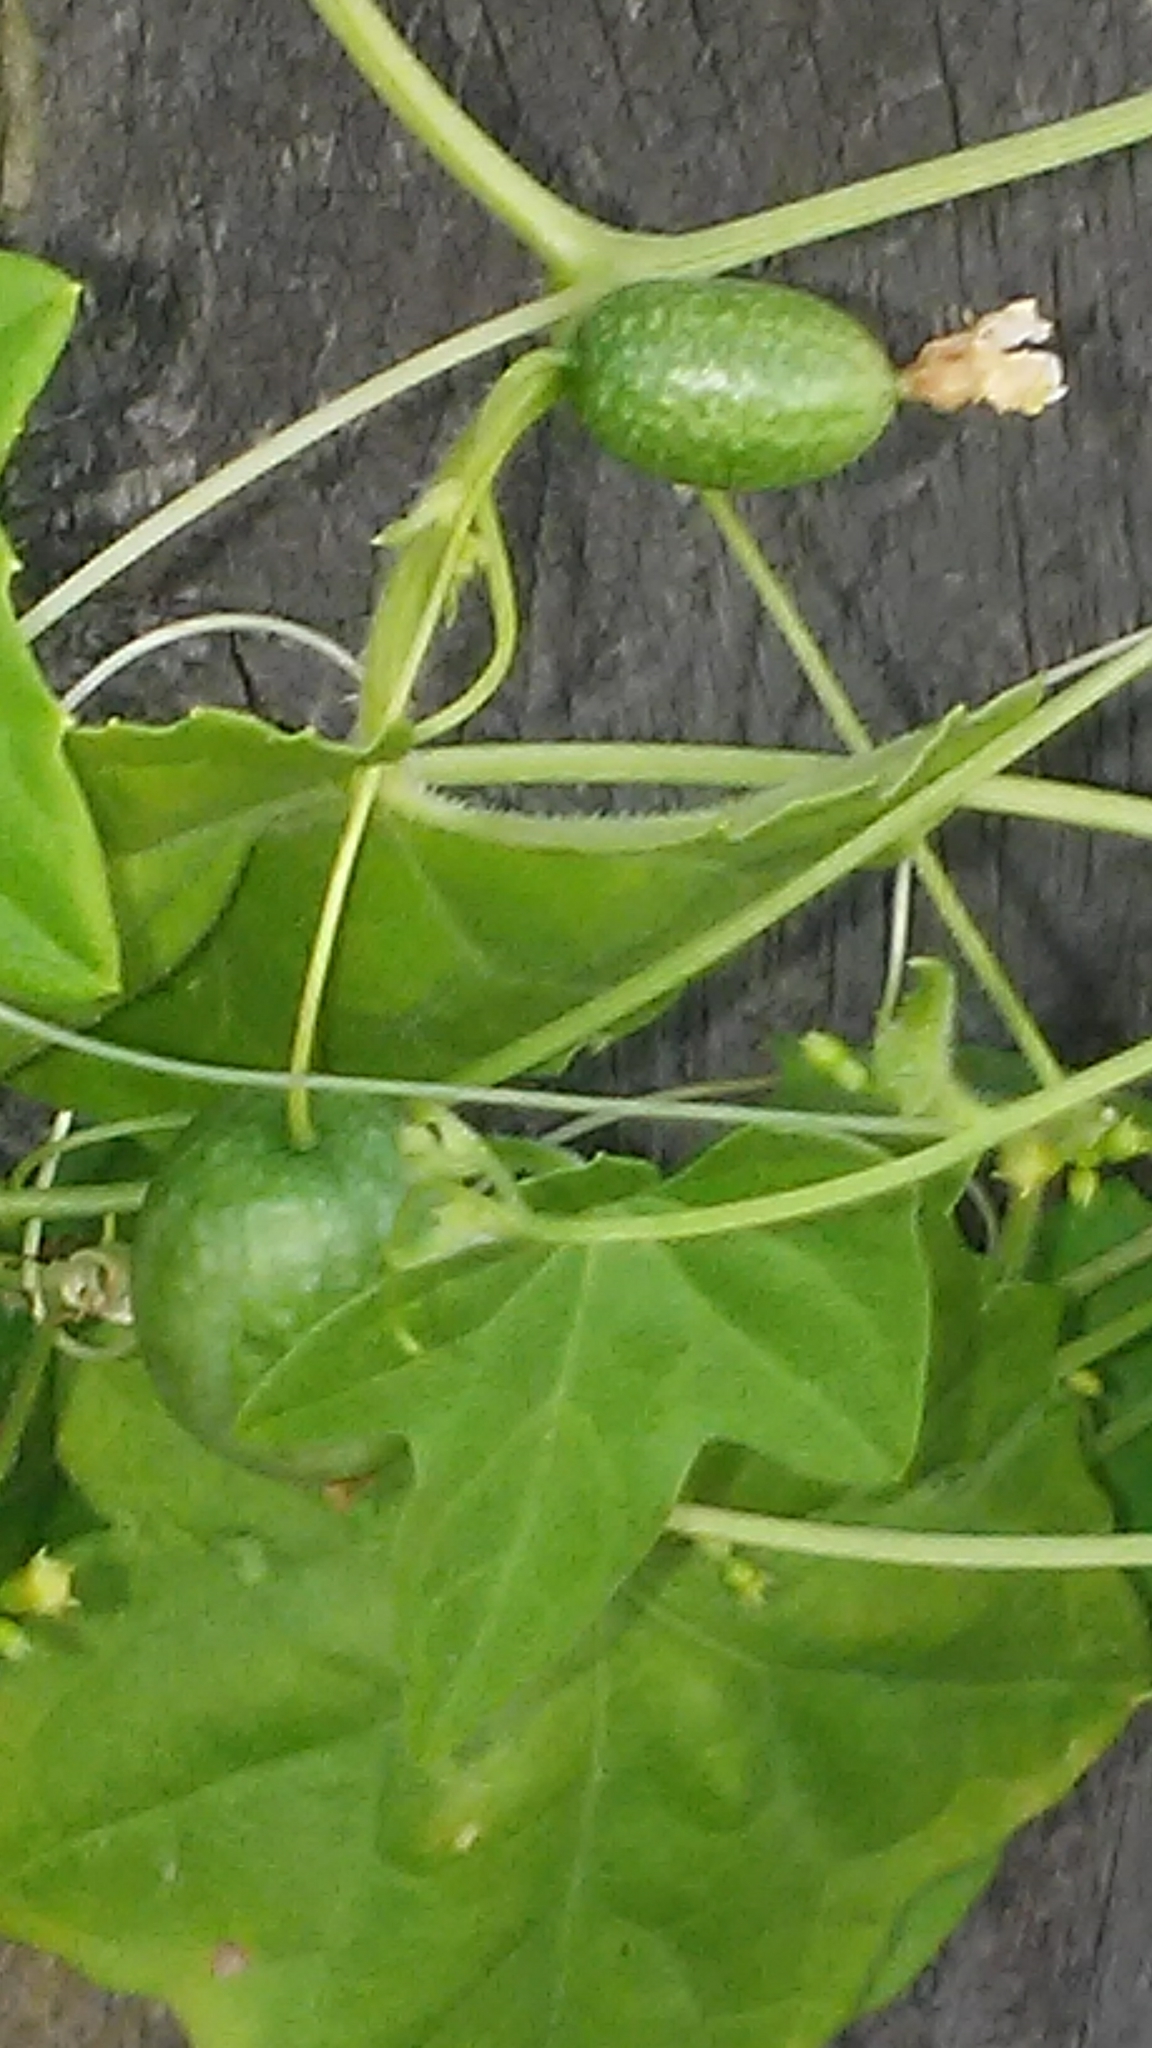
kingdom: Plantae
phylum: Tracheophyta
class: Magnoliopsida
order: Cucurbitales
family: Cucurbitaceae
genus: Melothria
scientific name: Melothria pendula
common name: Creeping-cucumber
